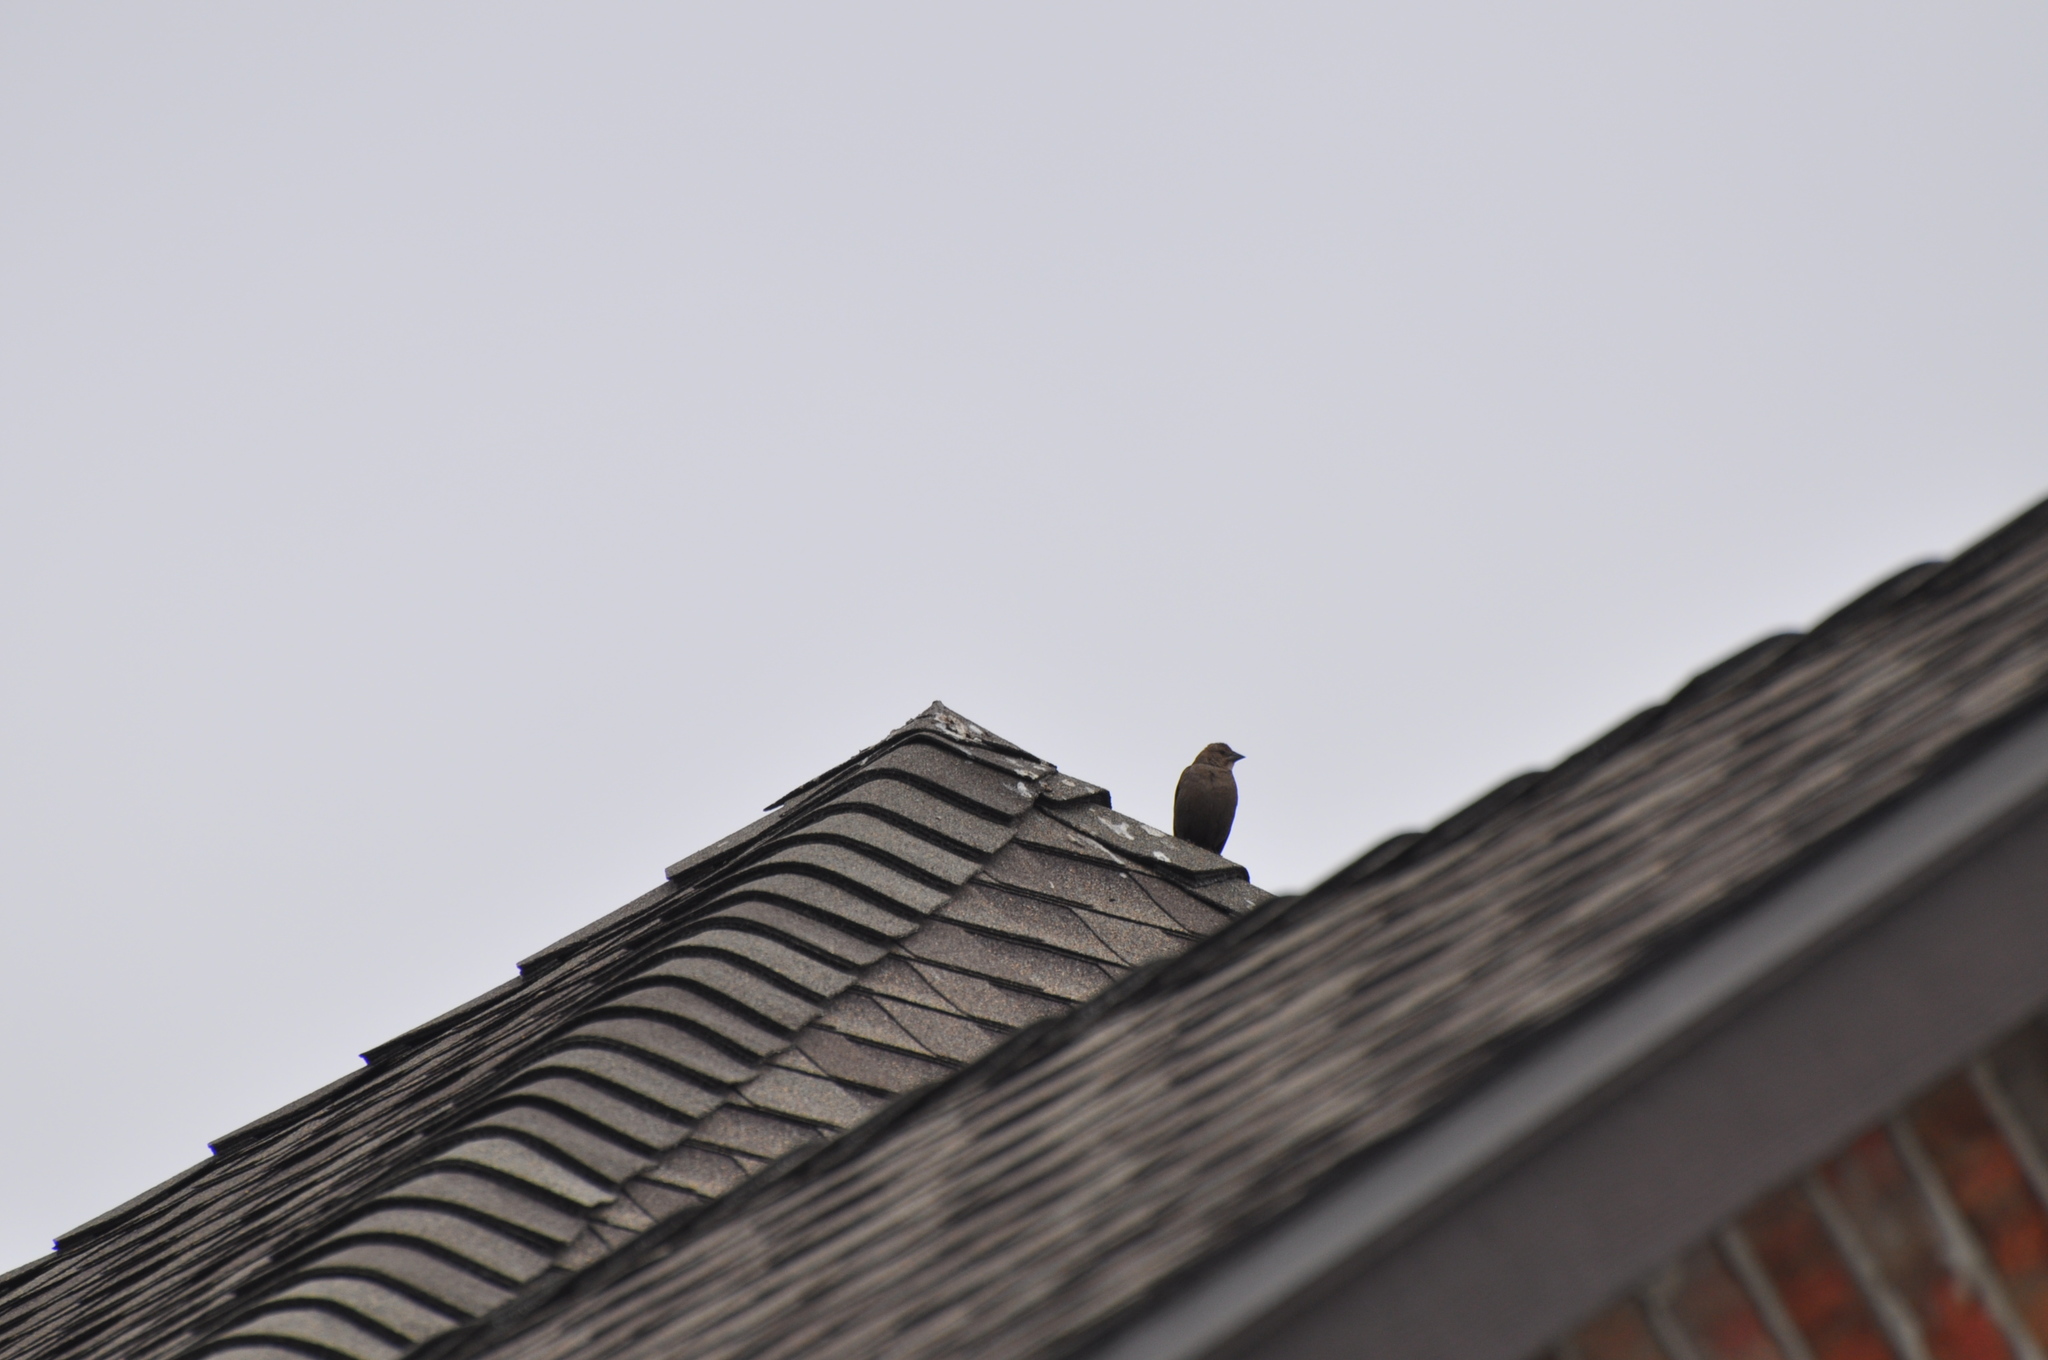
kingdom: Animalia
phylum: Chordata
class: Aves
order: Passeriformes
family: Icteridae
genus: Molothrus
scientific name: Molothrus ater
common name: Brown-headed cowbird
